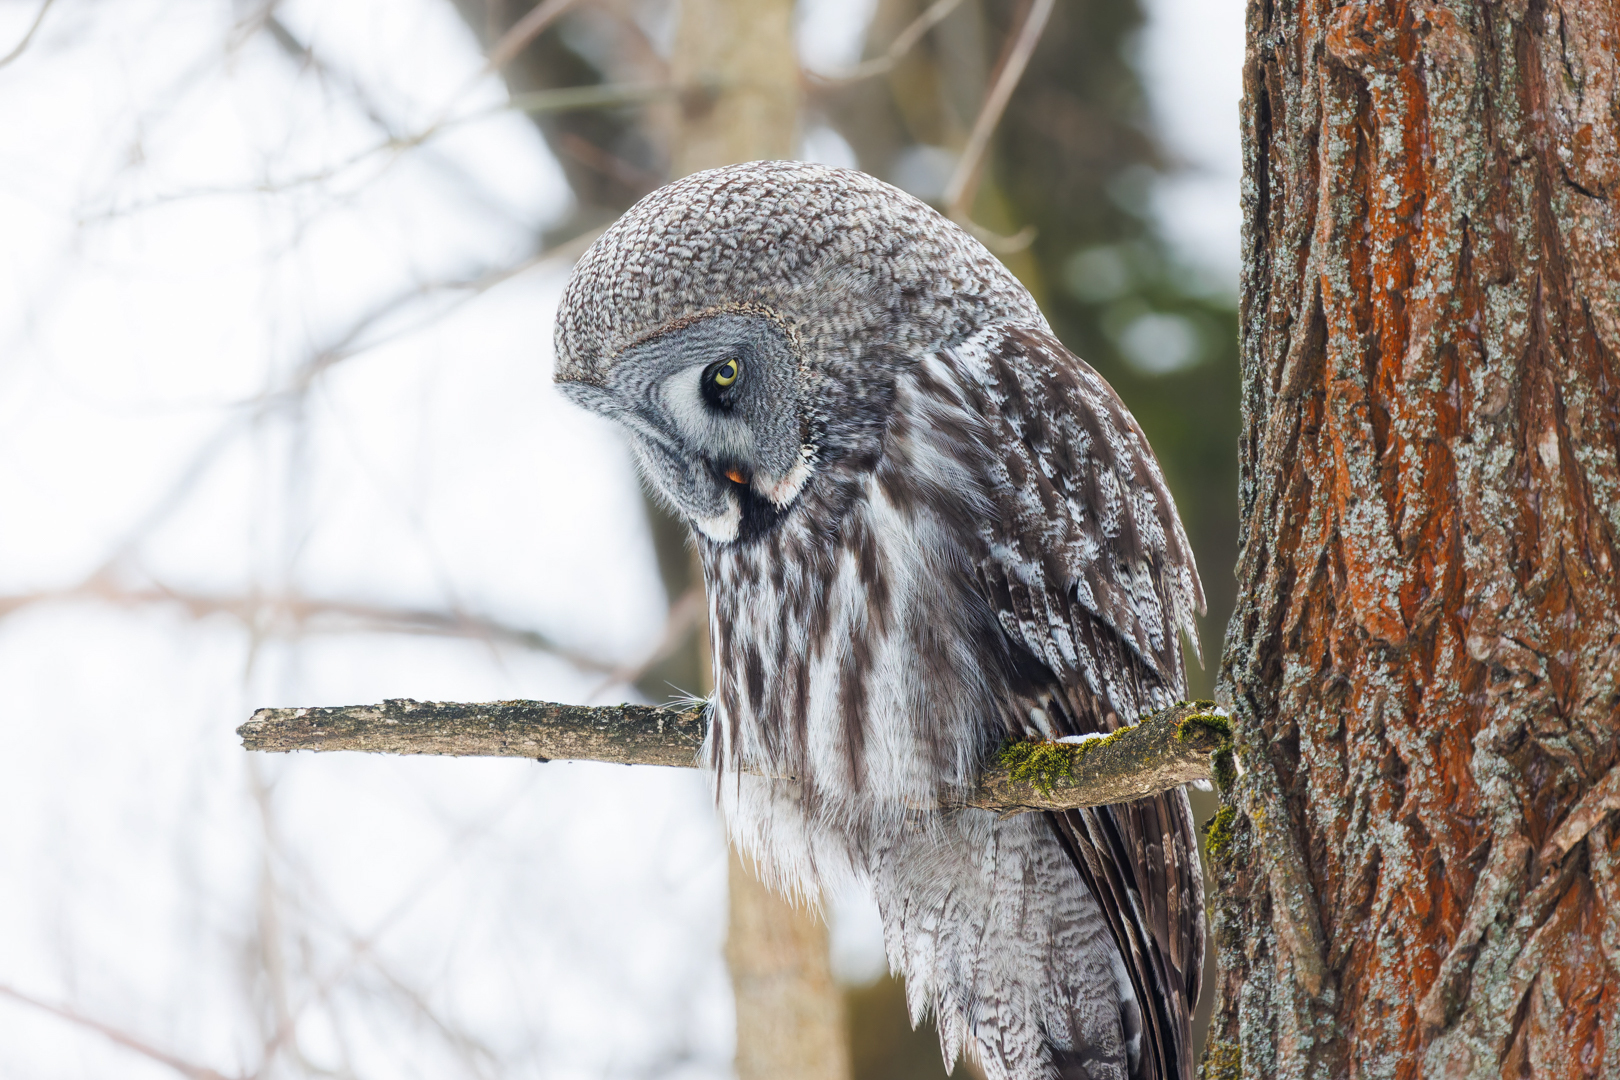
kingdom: Animalia
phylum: Chordata
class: Aves
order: Strigiformes
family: Strigidae
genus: Strix
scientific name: Strix nebulosa
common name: Great grey owl
